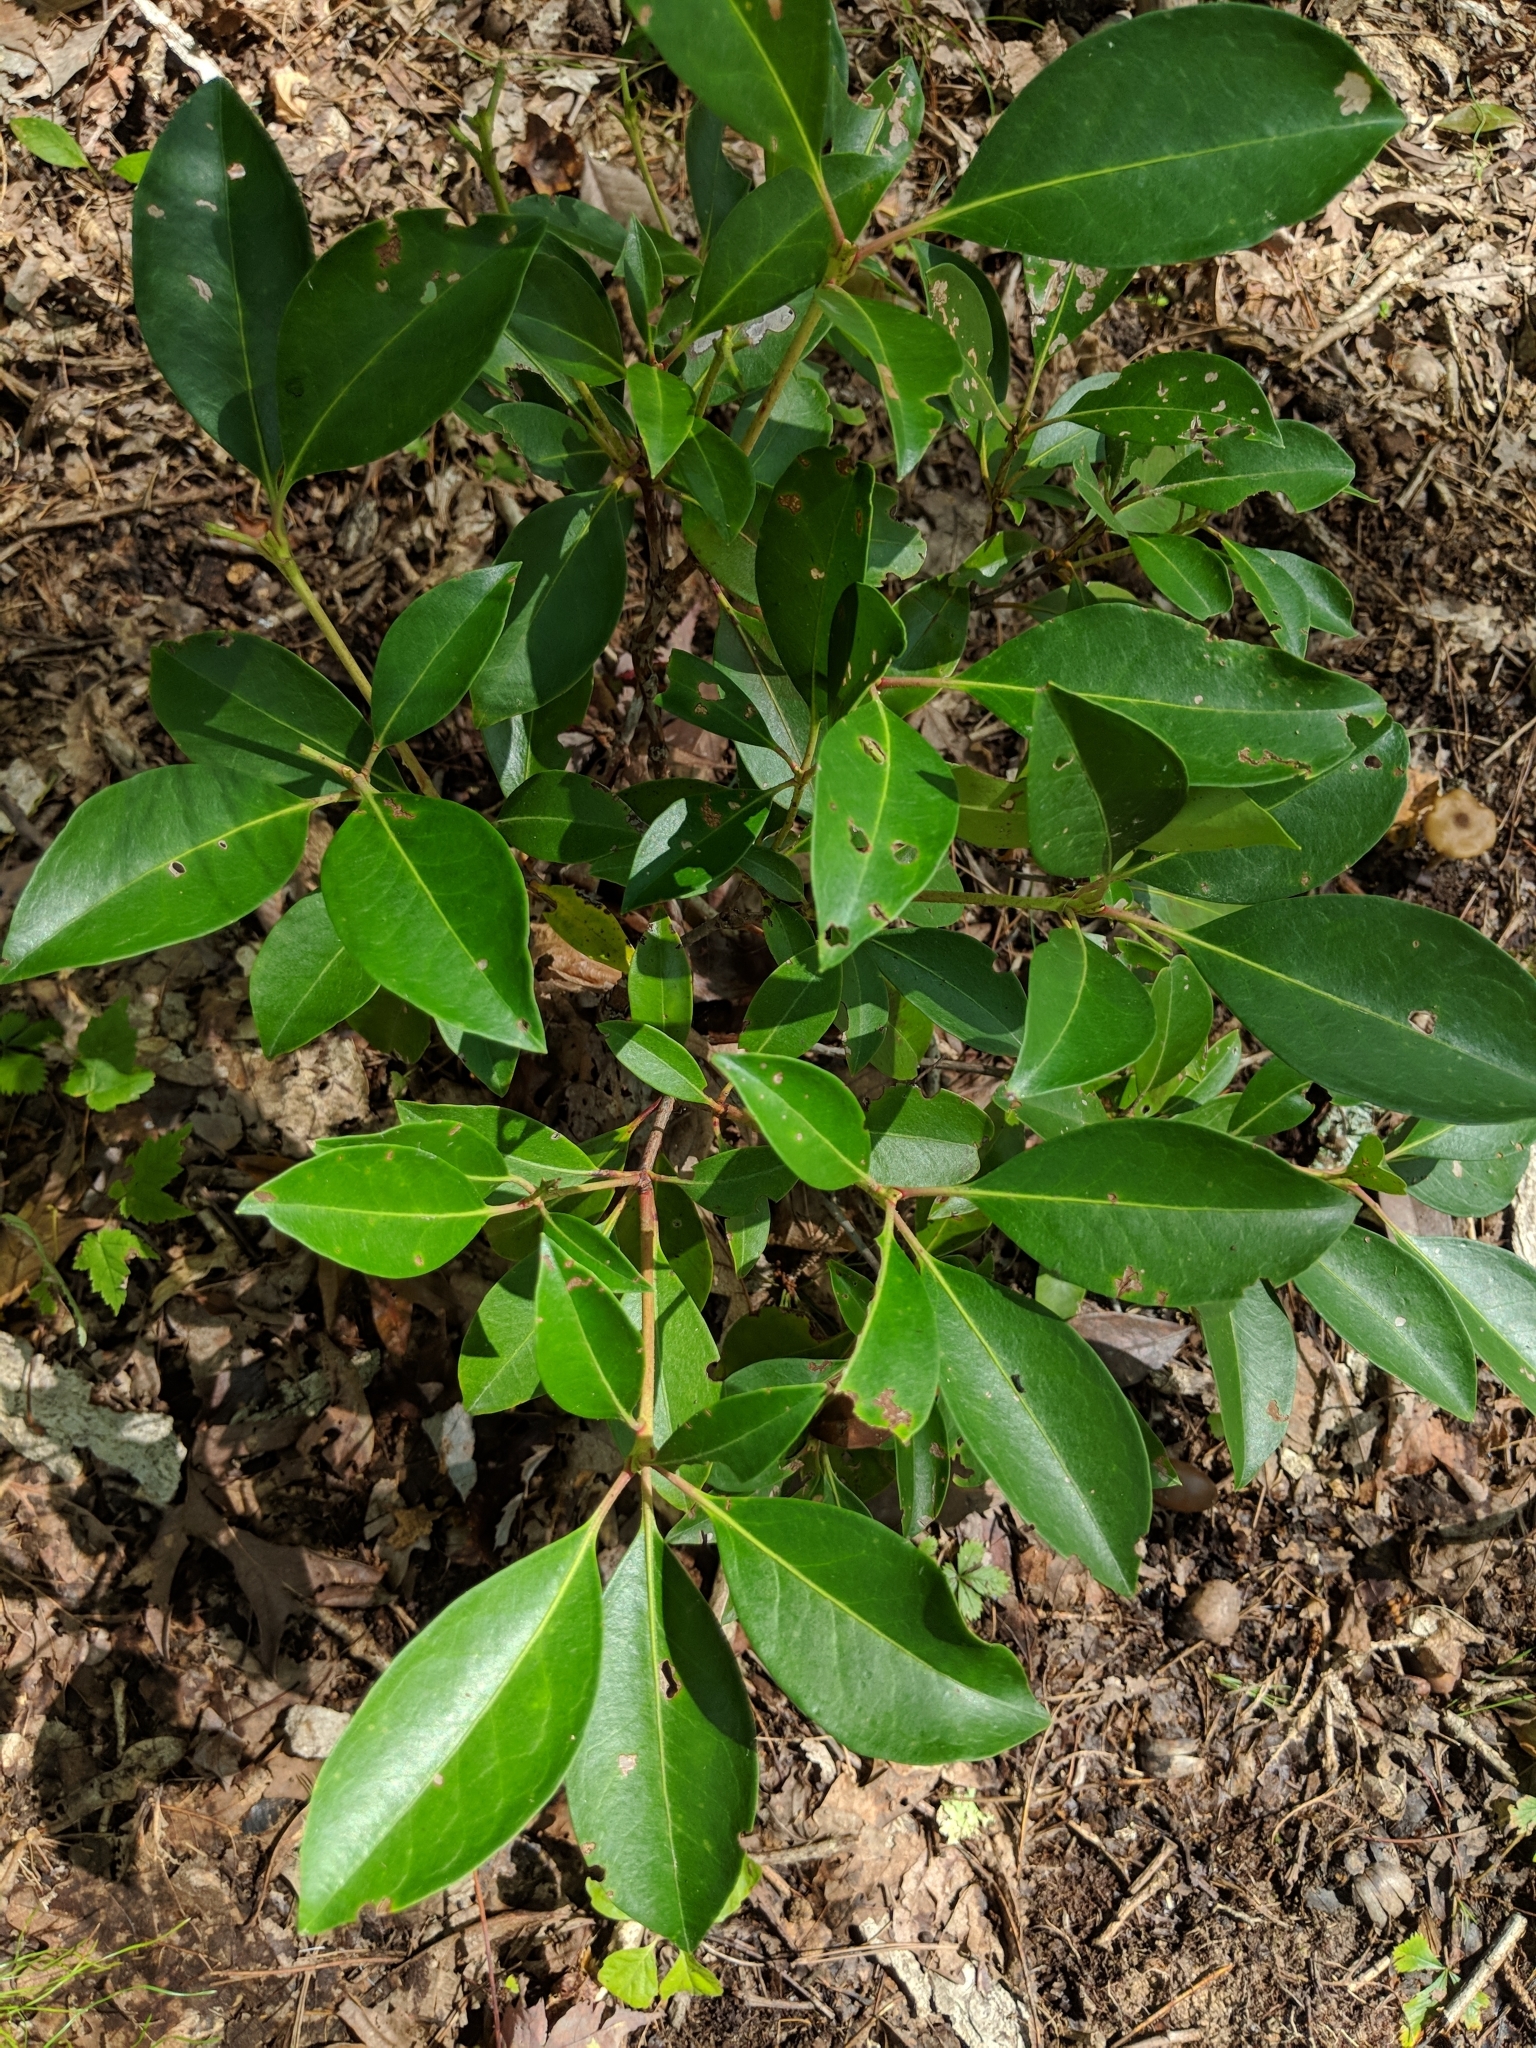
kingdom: Plantae
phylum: Tracheophyta
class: Magnoliopsida
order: Ericales
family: Ericaceae
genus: Kalmia
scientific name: Kalmia latifolia
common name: Mountain-laurel
